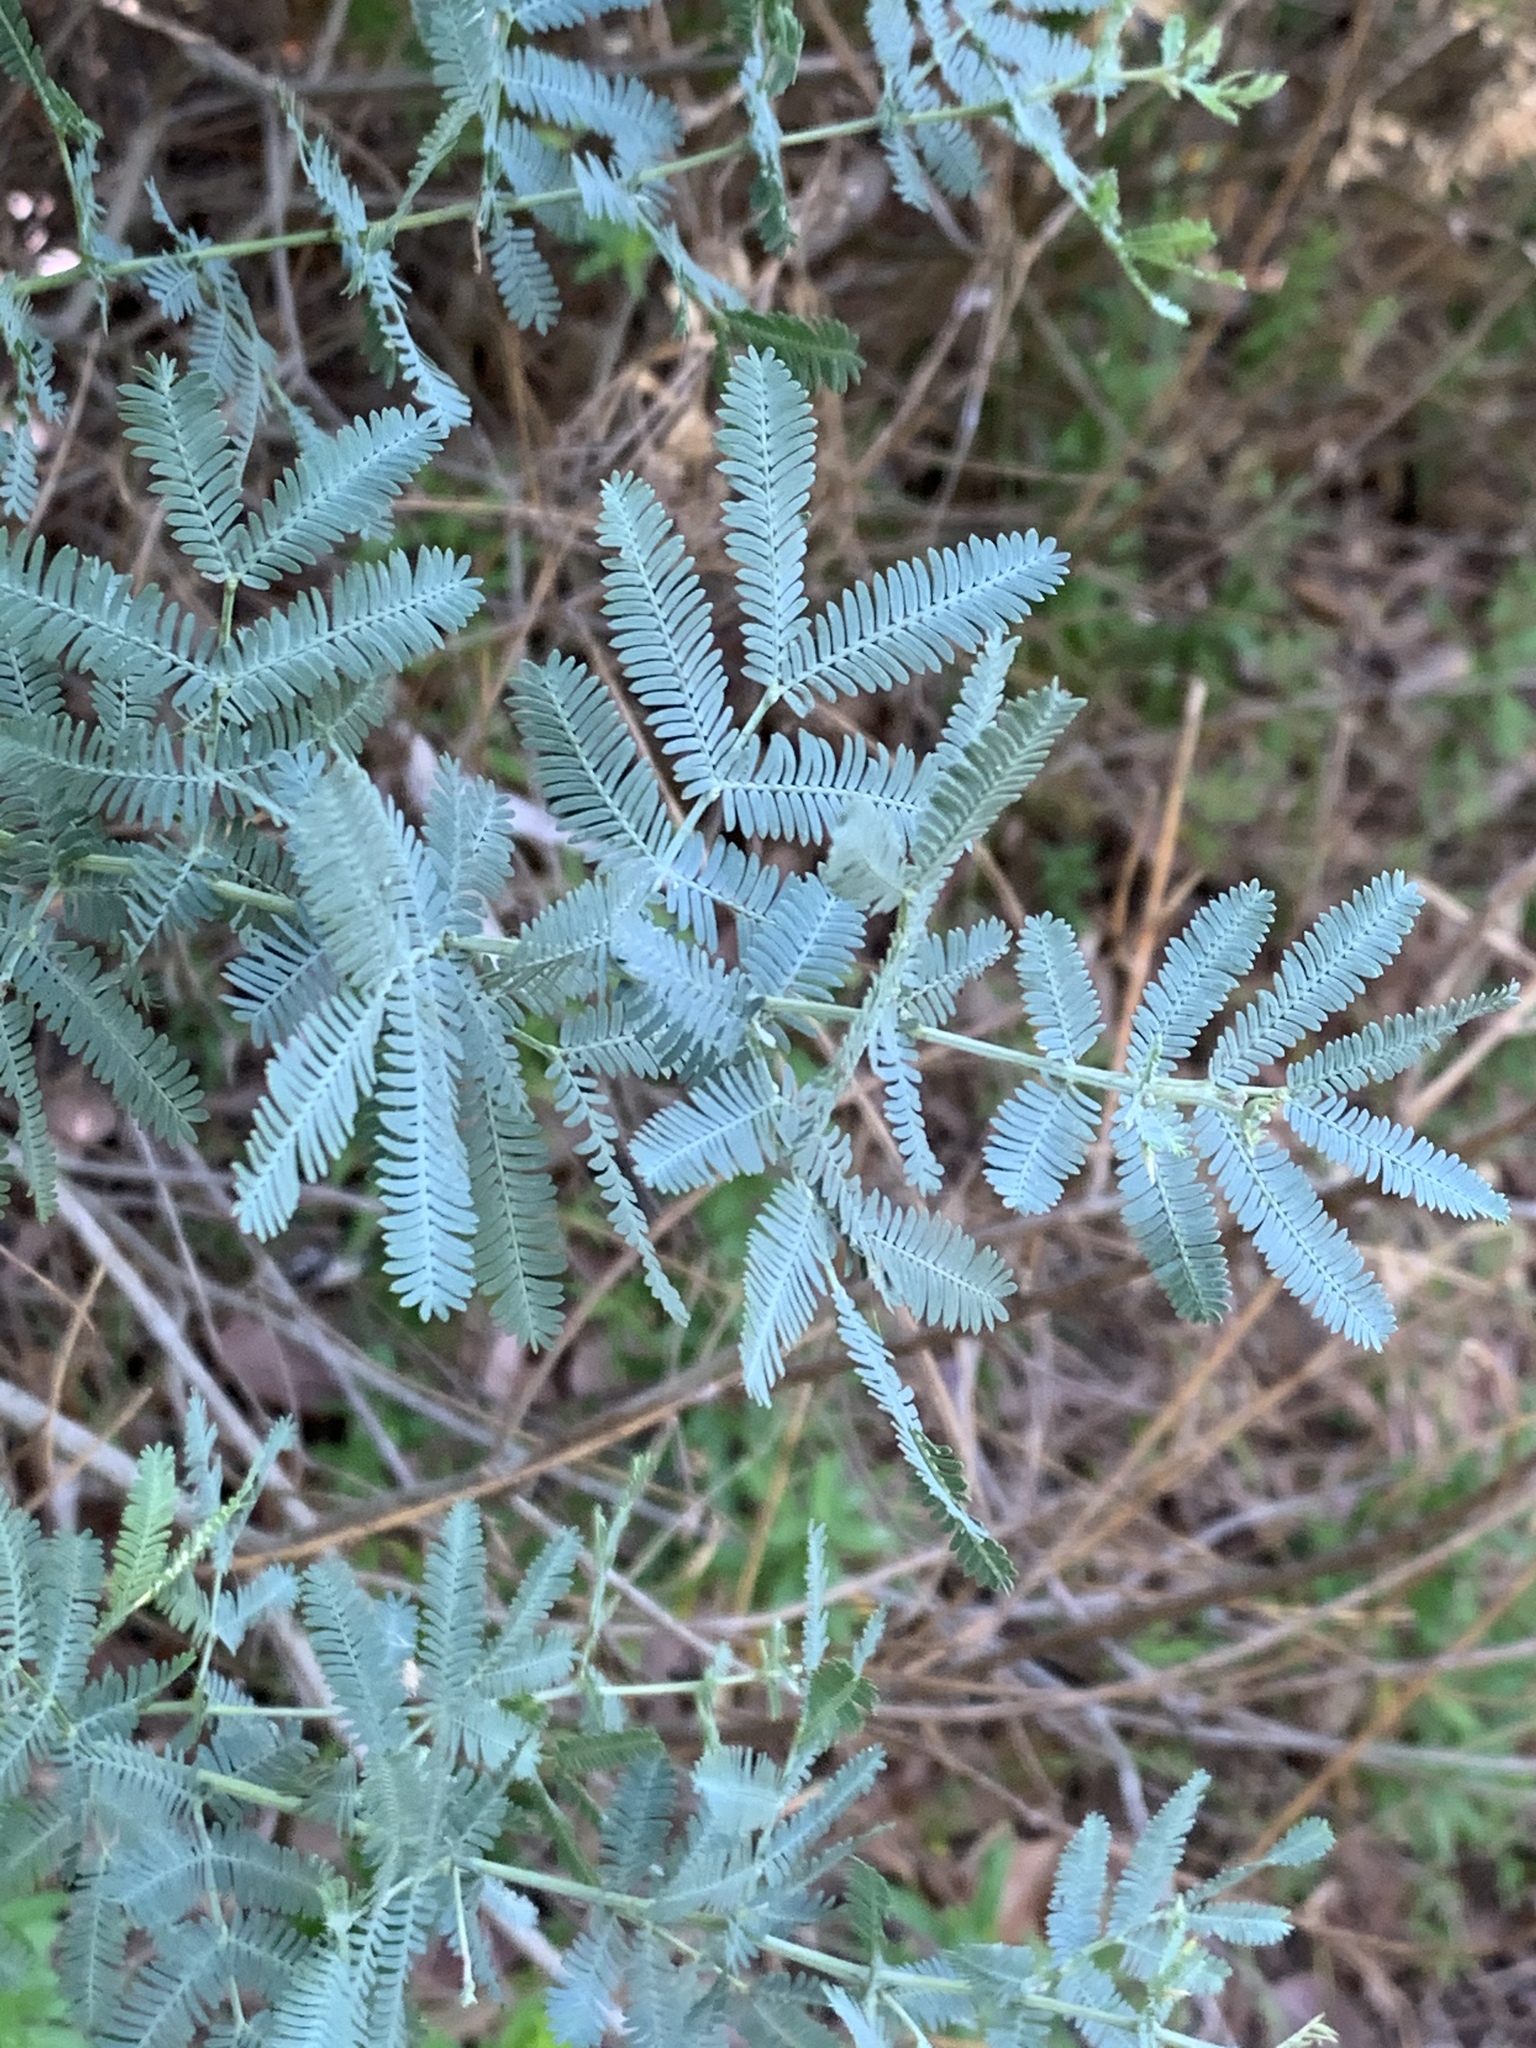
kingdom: Plantae
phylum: Tracheophyta
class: Magnoliopsida
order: Fabales
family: Fabaceae
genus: Acacia
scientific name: Acacia baileyana
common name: Cootamundra wattle
